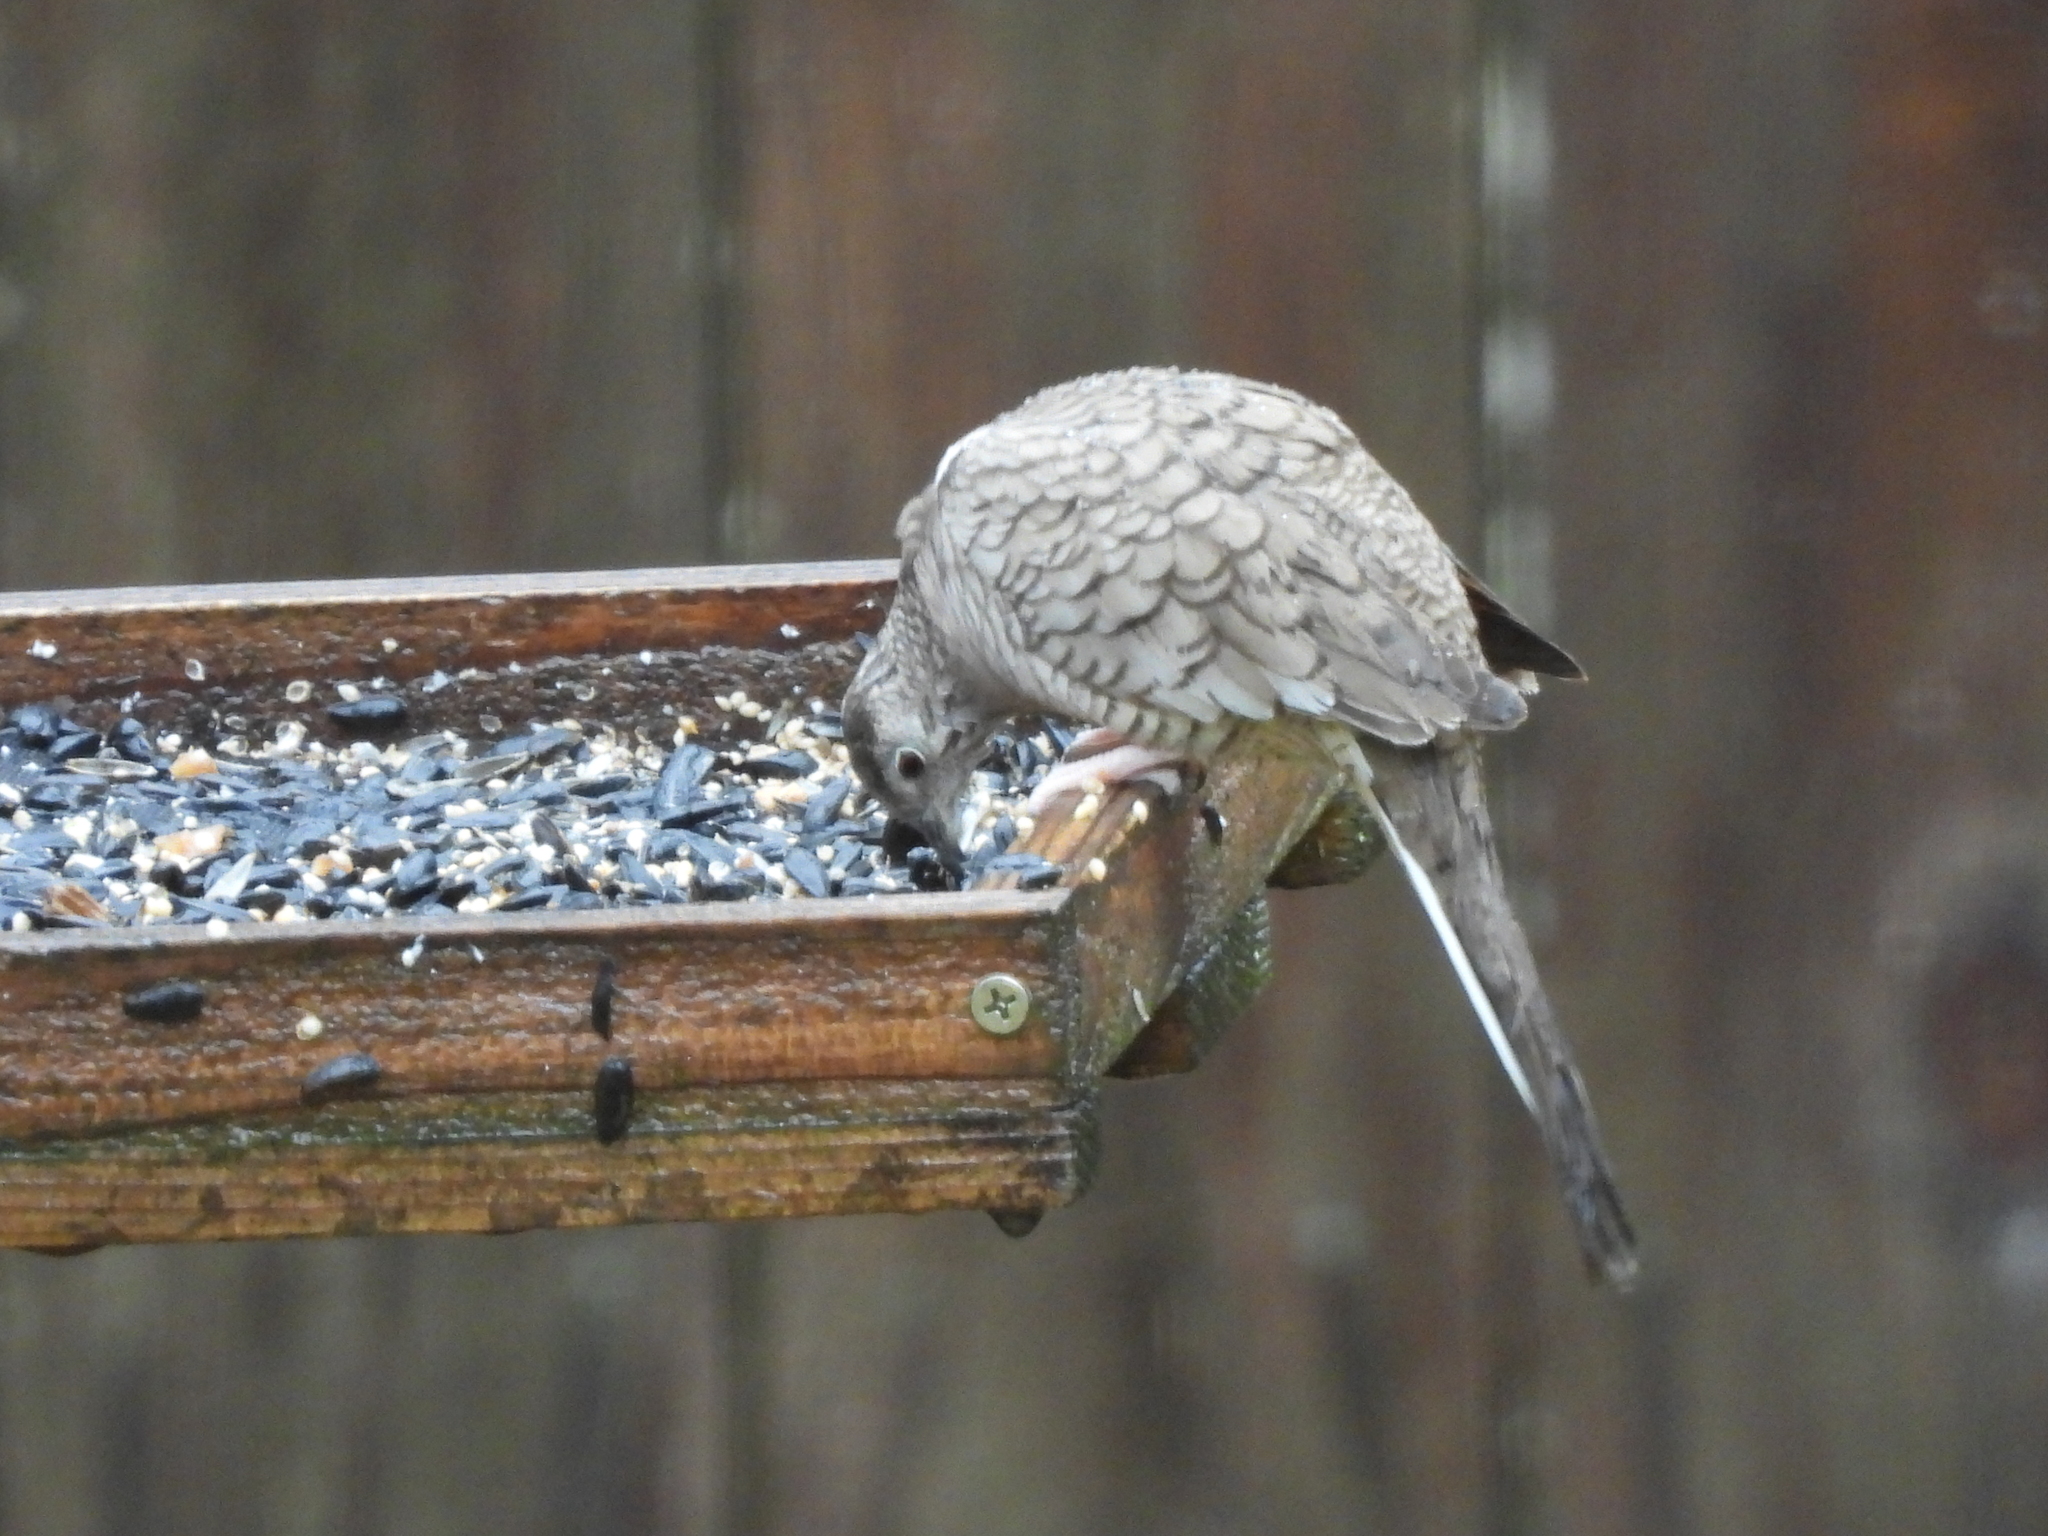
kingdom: Animalia
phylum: Chordata
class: Aves
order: Columbiformes
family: Columbidae
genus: Columbina
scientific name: Columbina inca
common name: Inca dove
